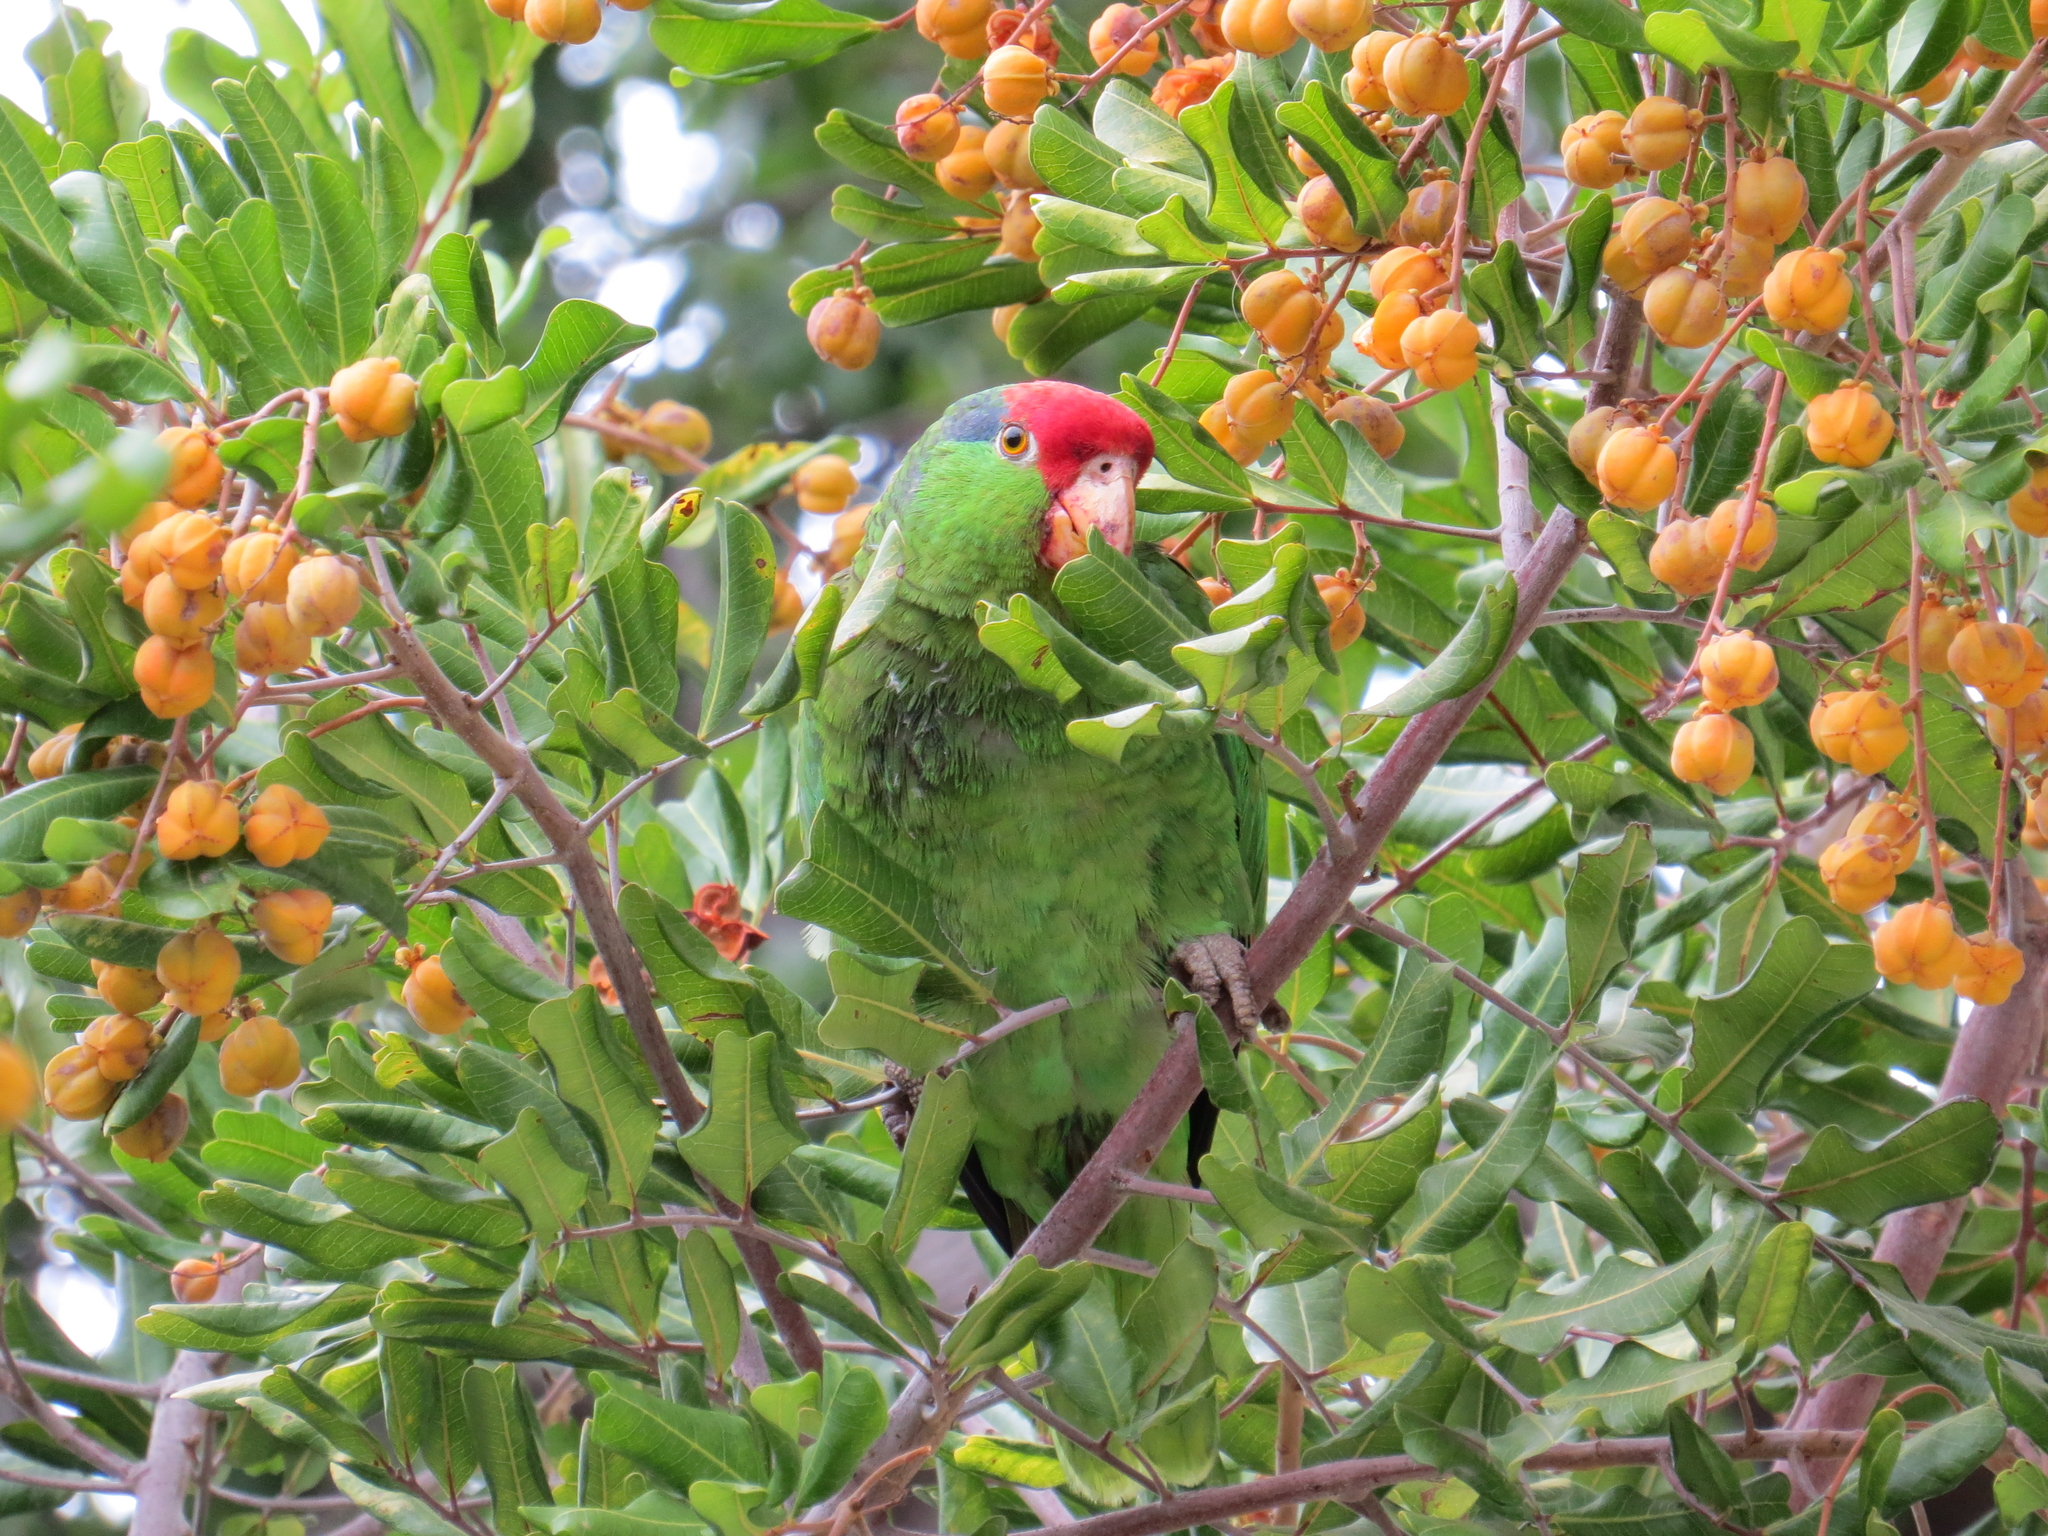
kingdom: Animalia
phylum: Chordata
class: Aves
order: Psittaciformes
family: Psittacidae
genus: Amazona
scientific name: Amazona viridigenalis
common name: Red-crowned amazon
